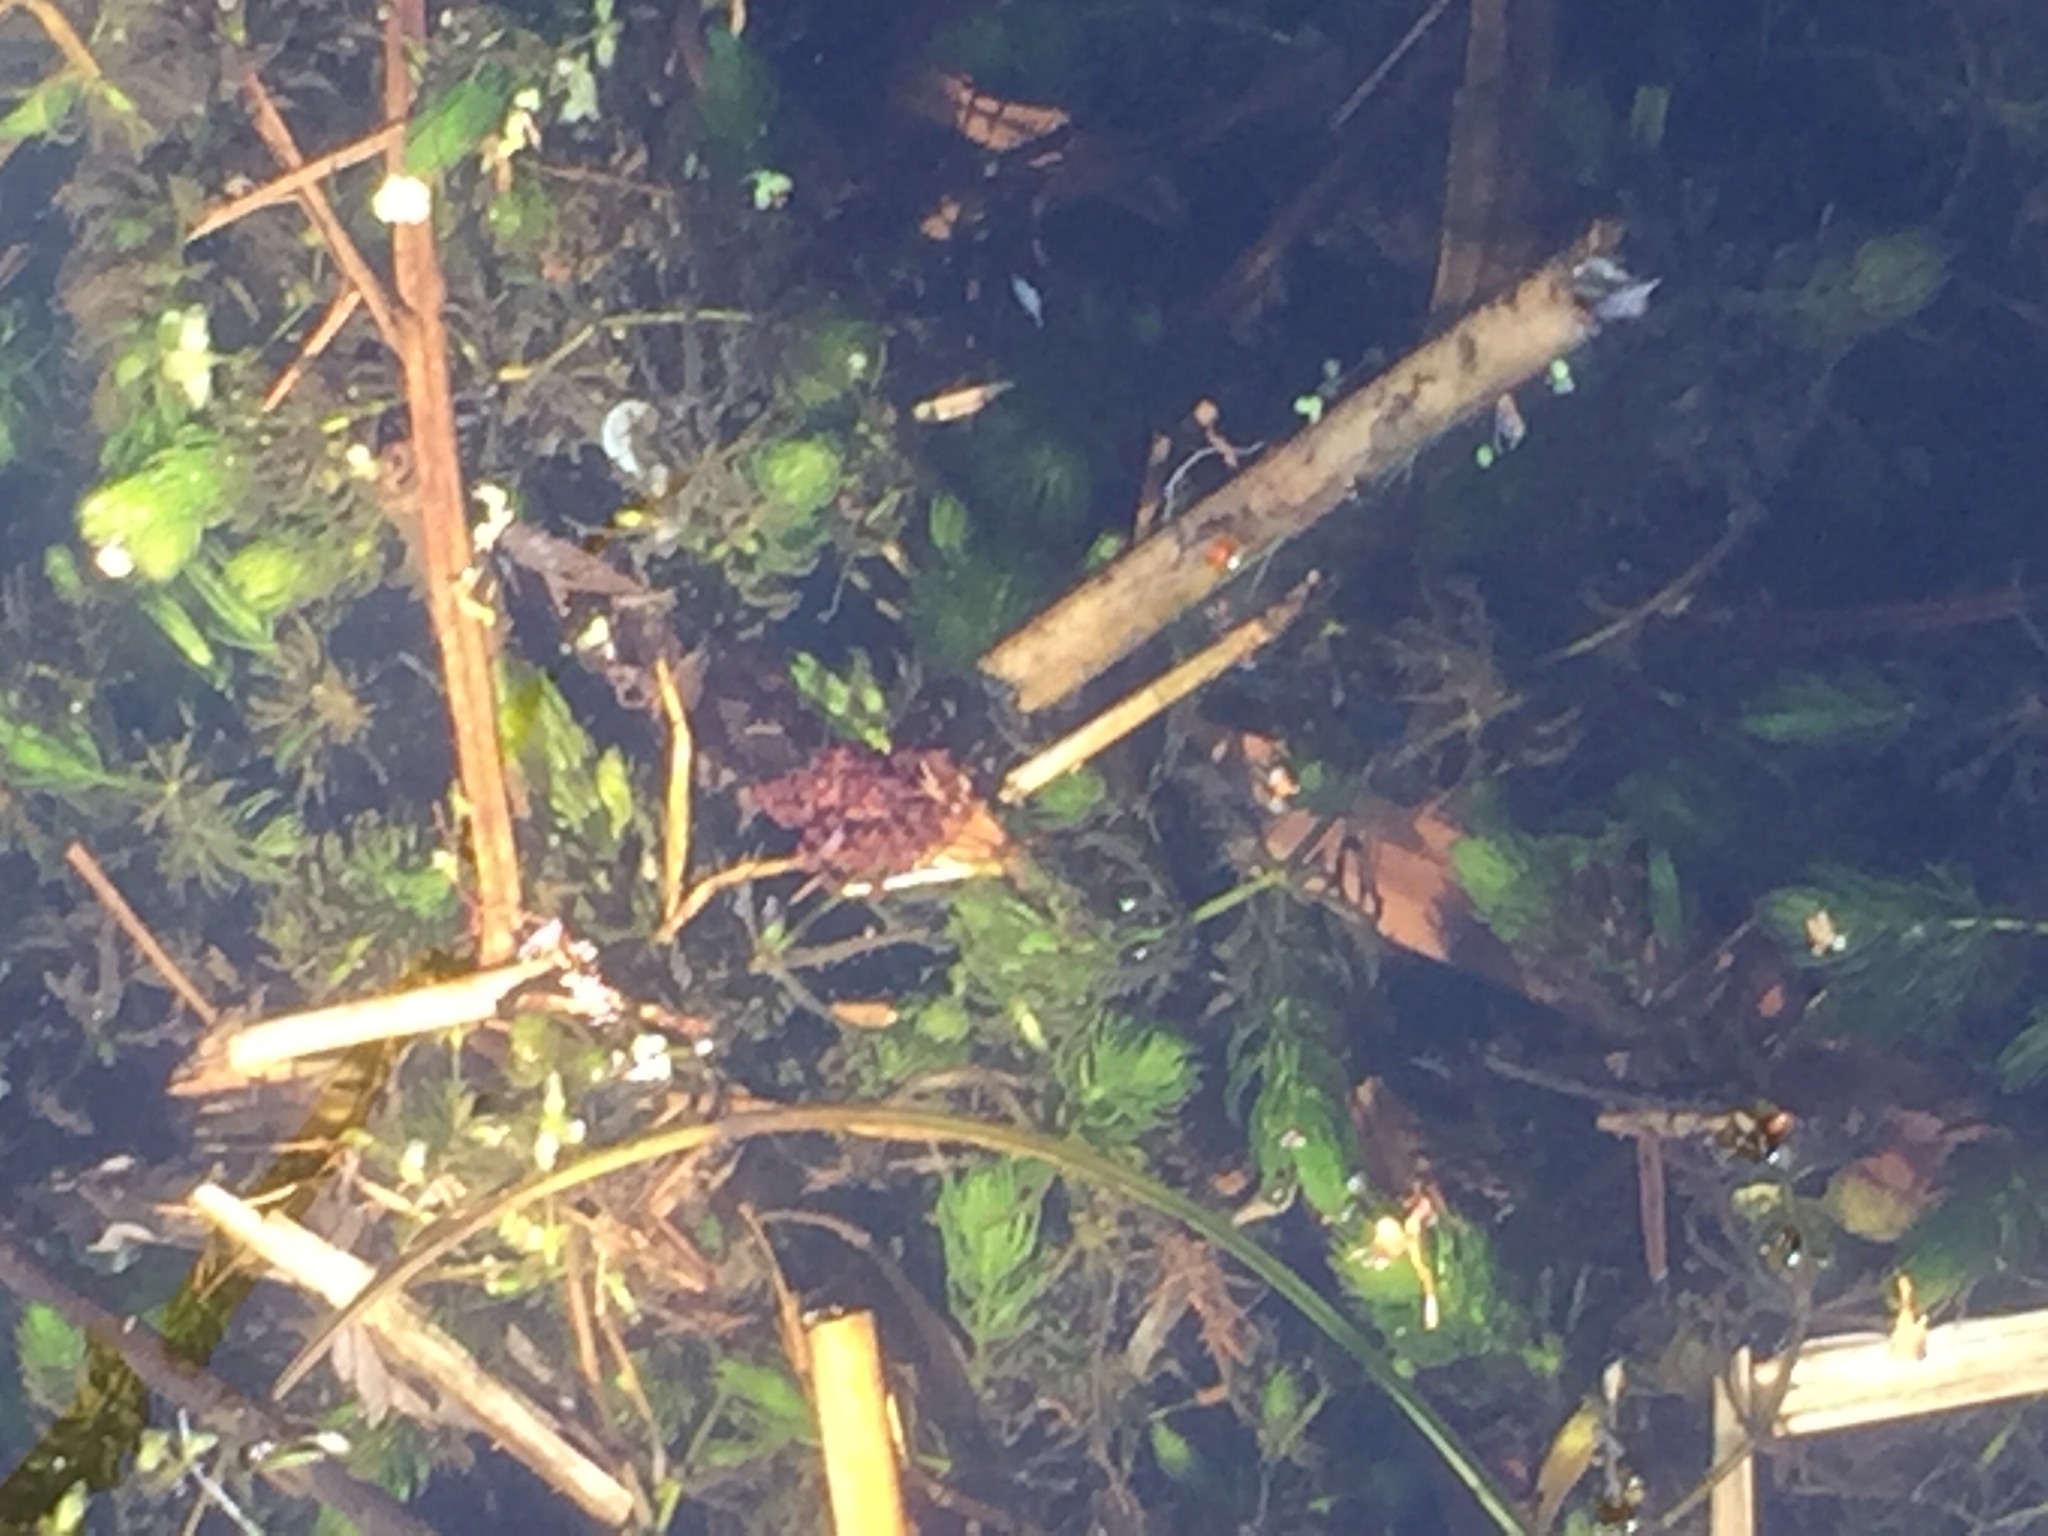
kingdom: Plantae
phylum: Tracheophyta
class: Magnoliopsida
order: Ceratophyllales
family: Ceratophyllaceae
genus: Ceratophyllum
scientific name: Ceratophyllum demersum
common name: Rigid hornwort
